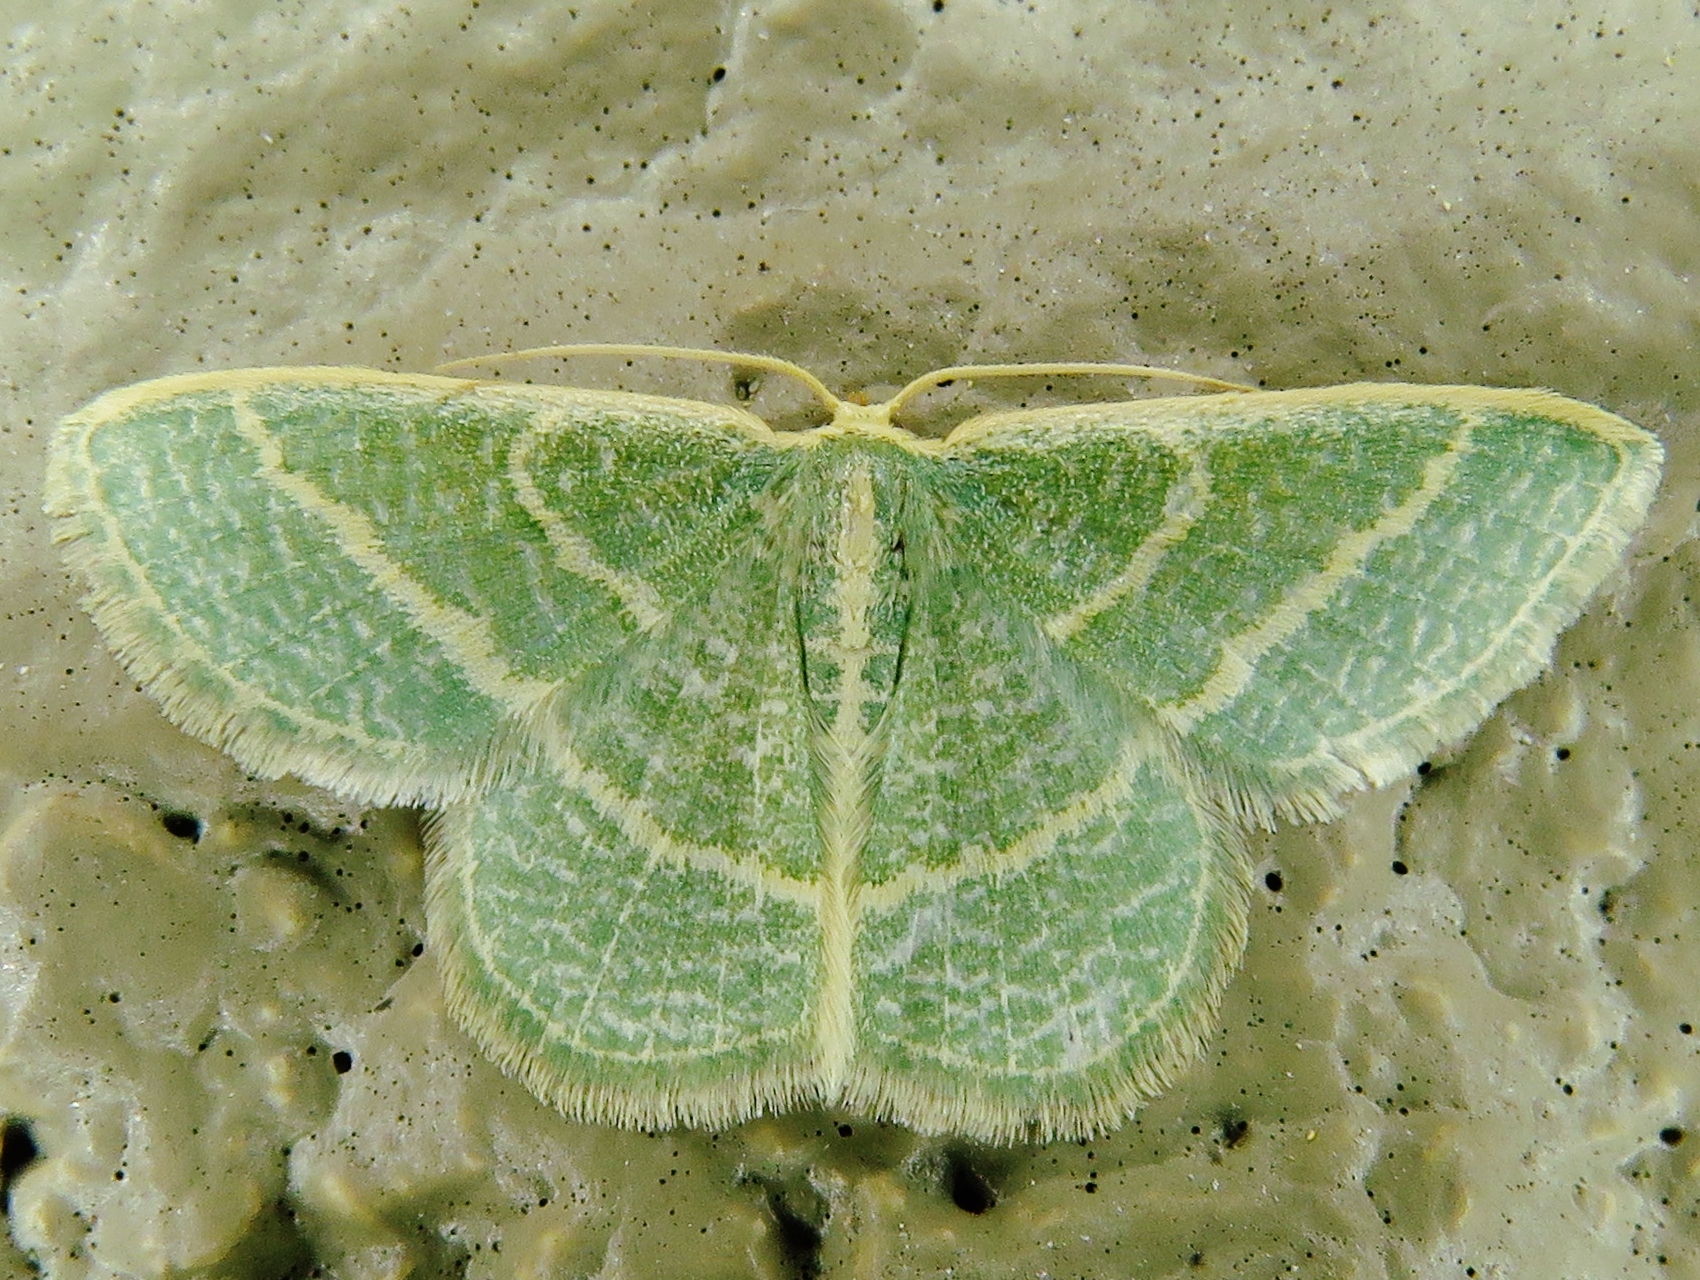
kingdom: Animalia
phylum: Arthropoda
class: Insecta
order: Lepidoptera
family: Geometridae
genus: Chlorochlamys
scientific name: Chlorochlamys chloroleucaria
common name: Blackberry looper
